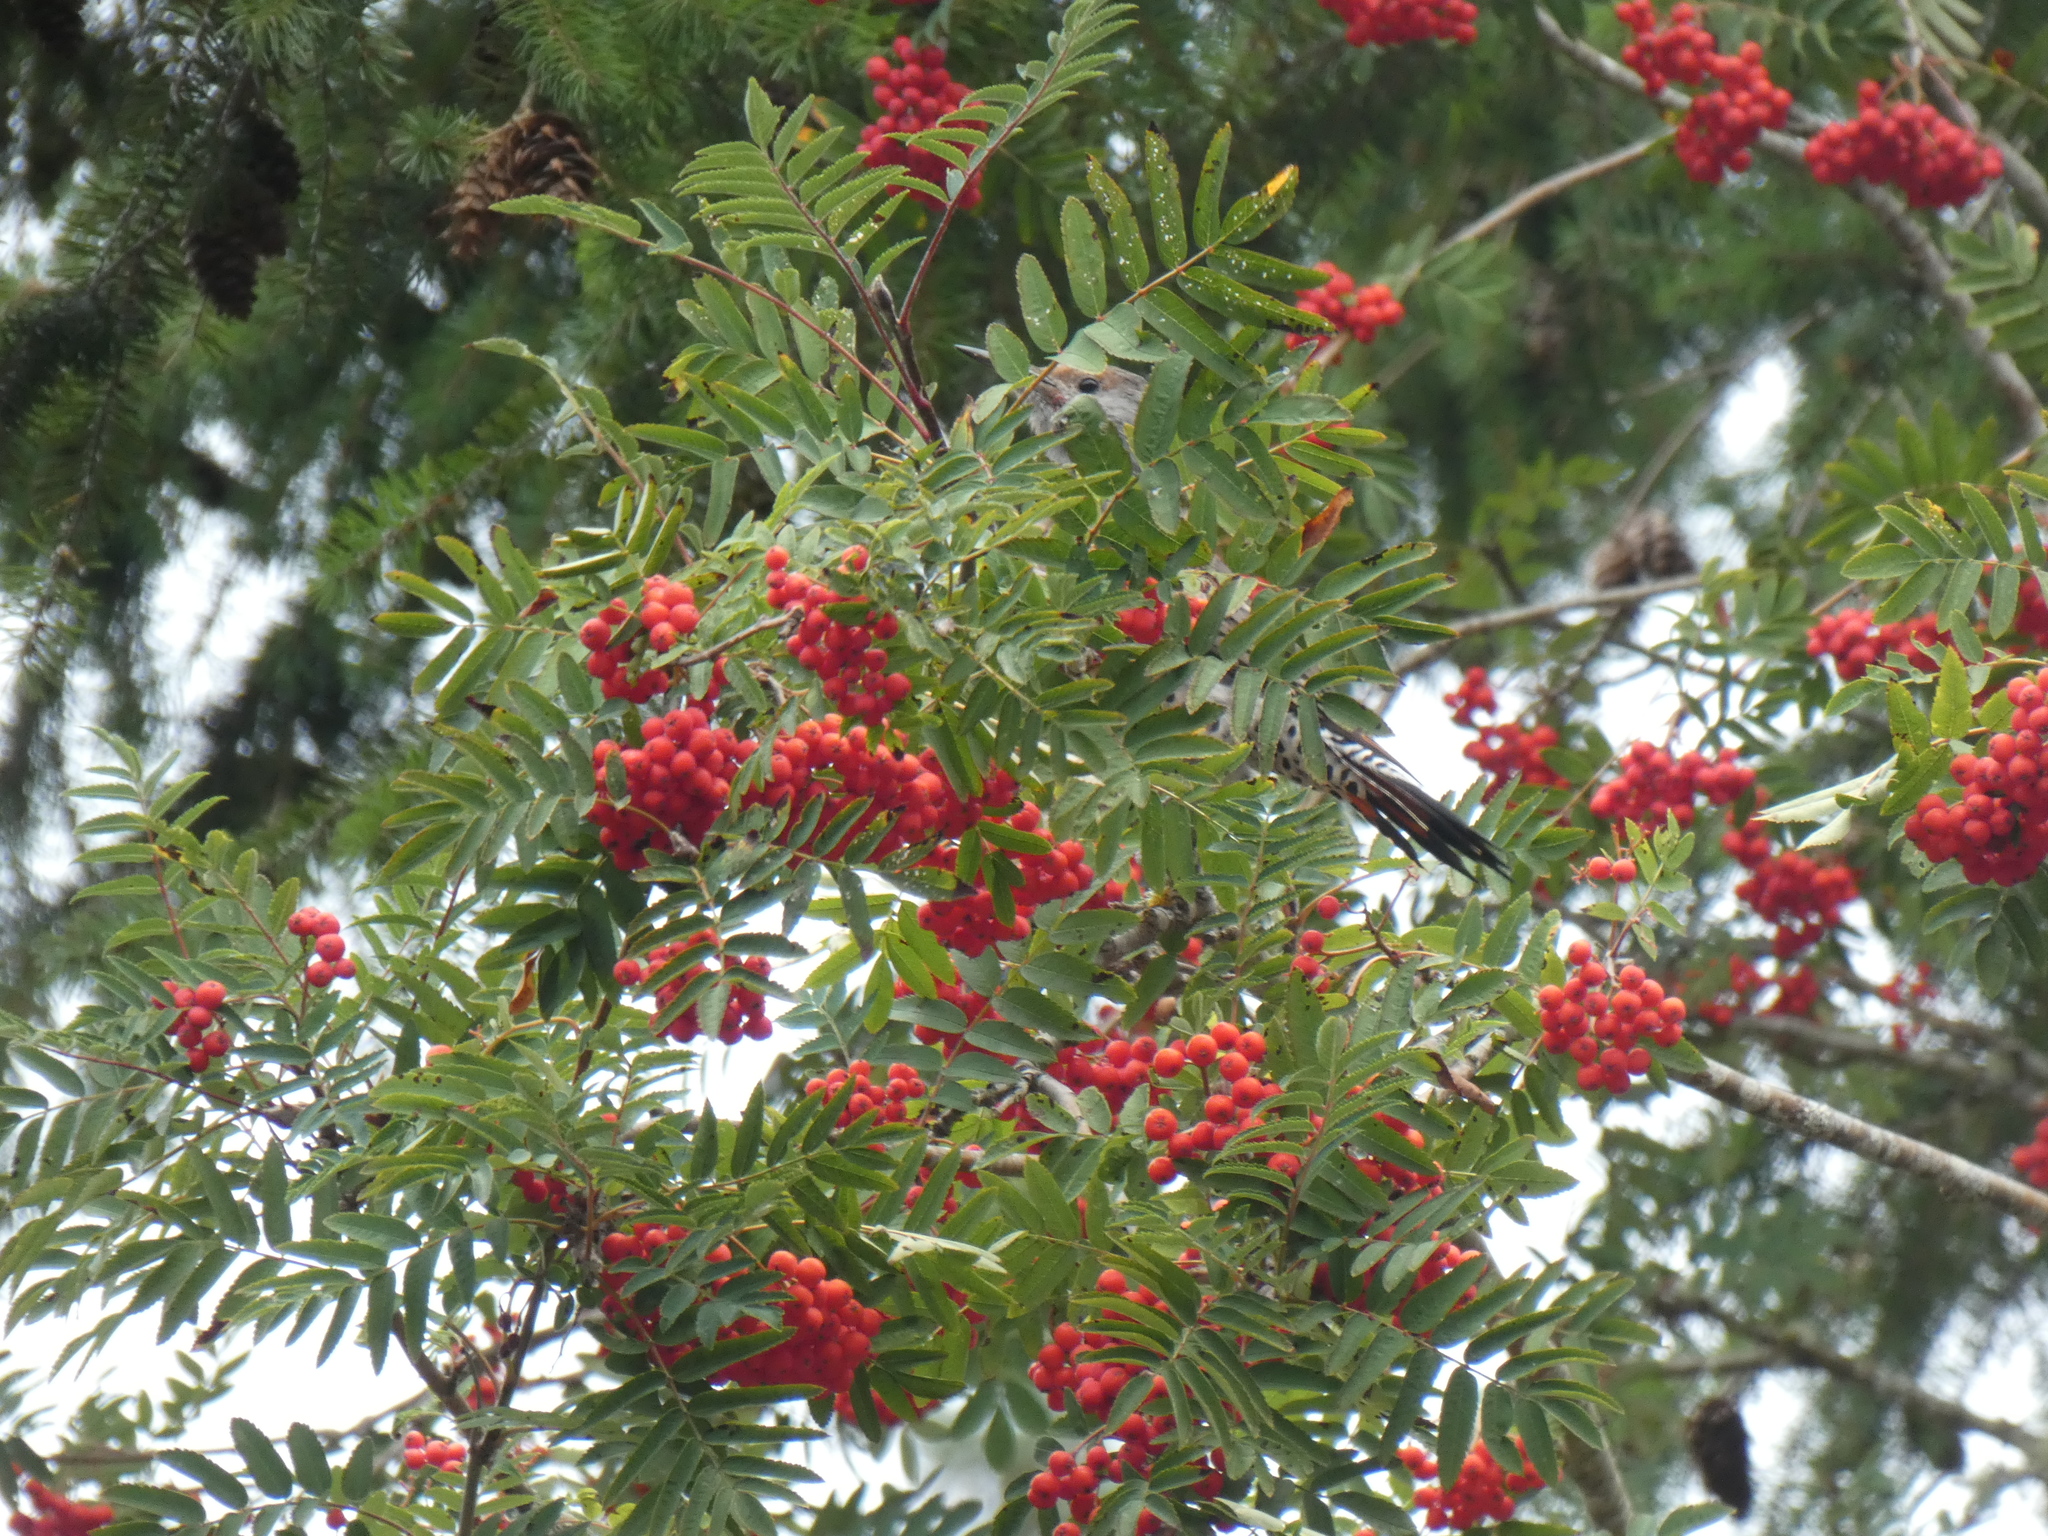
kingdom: Animalia
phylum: Chordata
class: Aves
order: Piciformes
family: Picidae
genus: Colaptes
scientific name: Colaptes auratus
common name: Northern flicker
